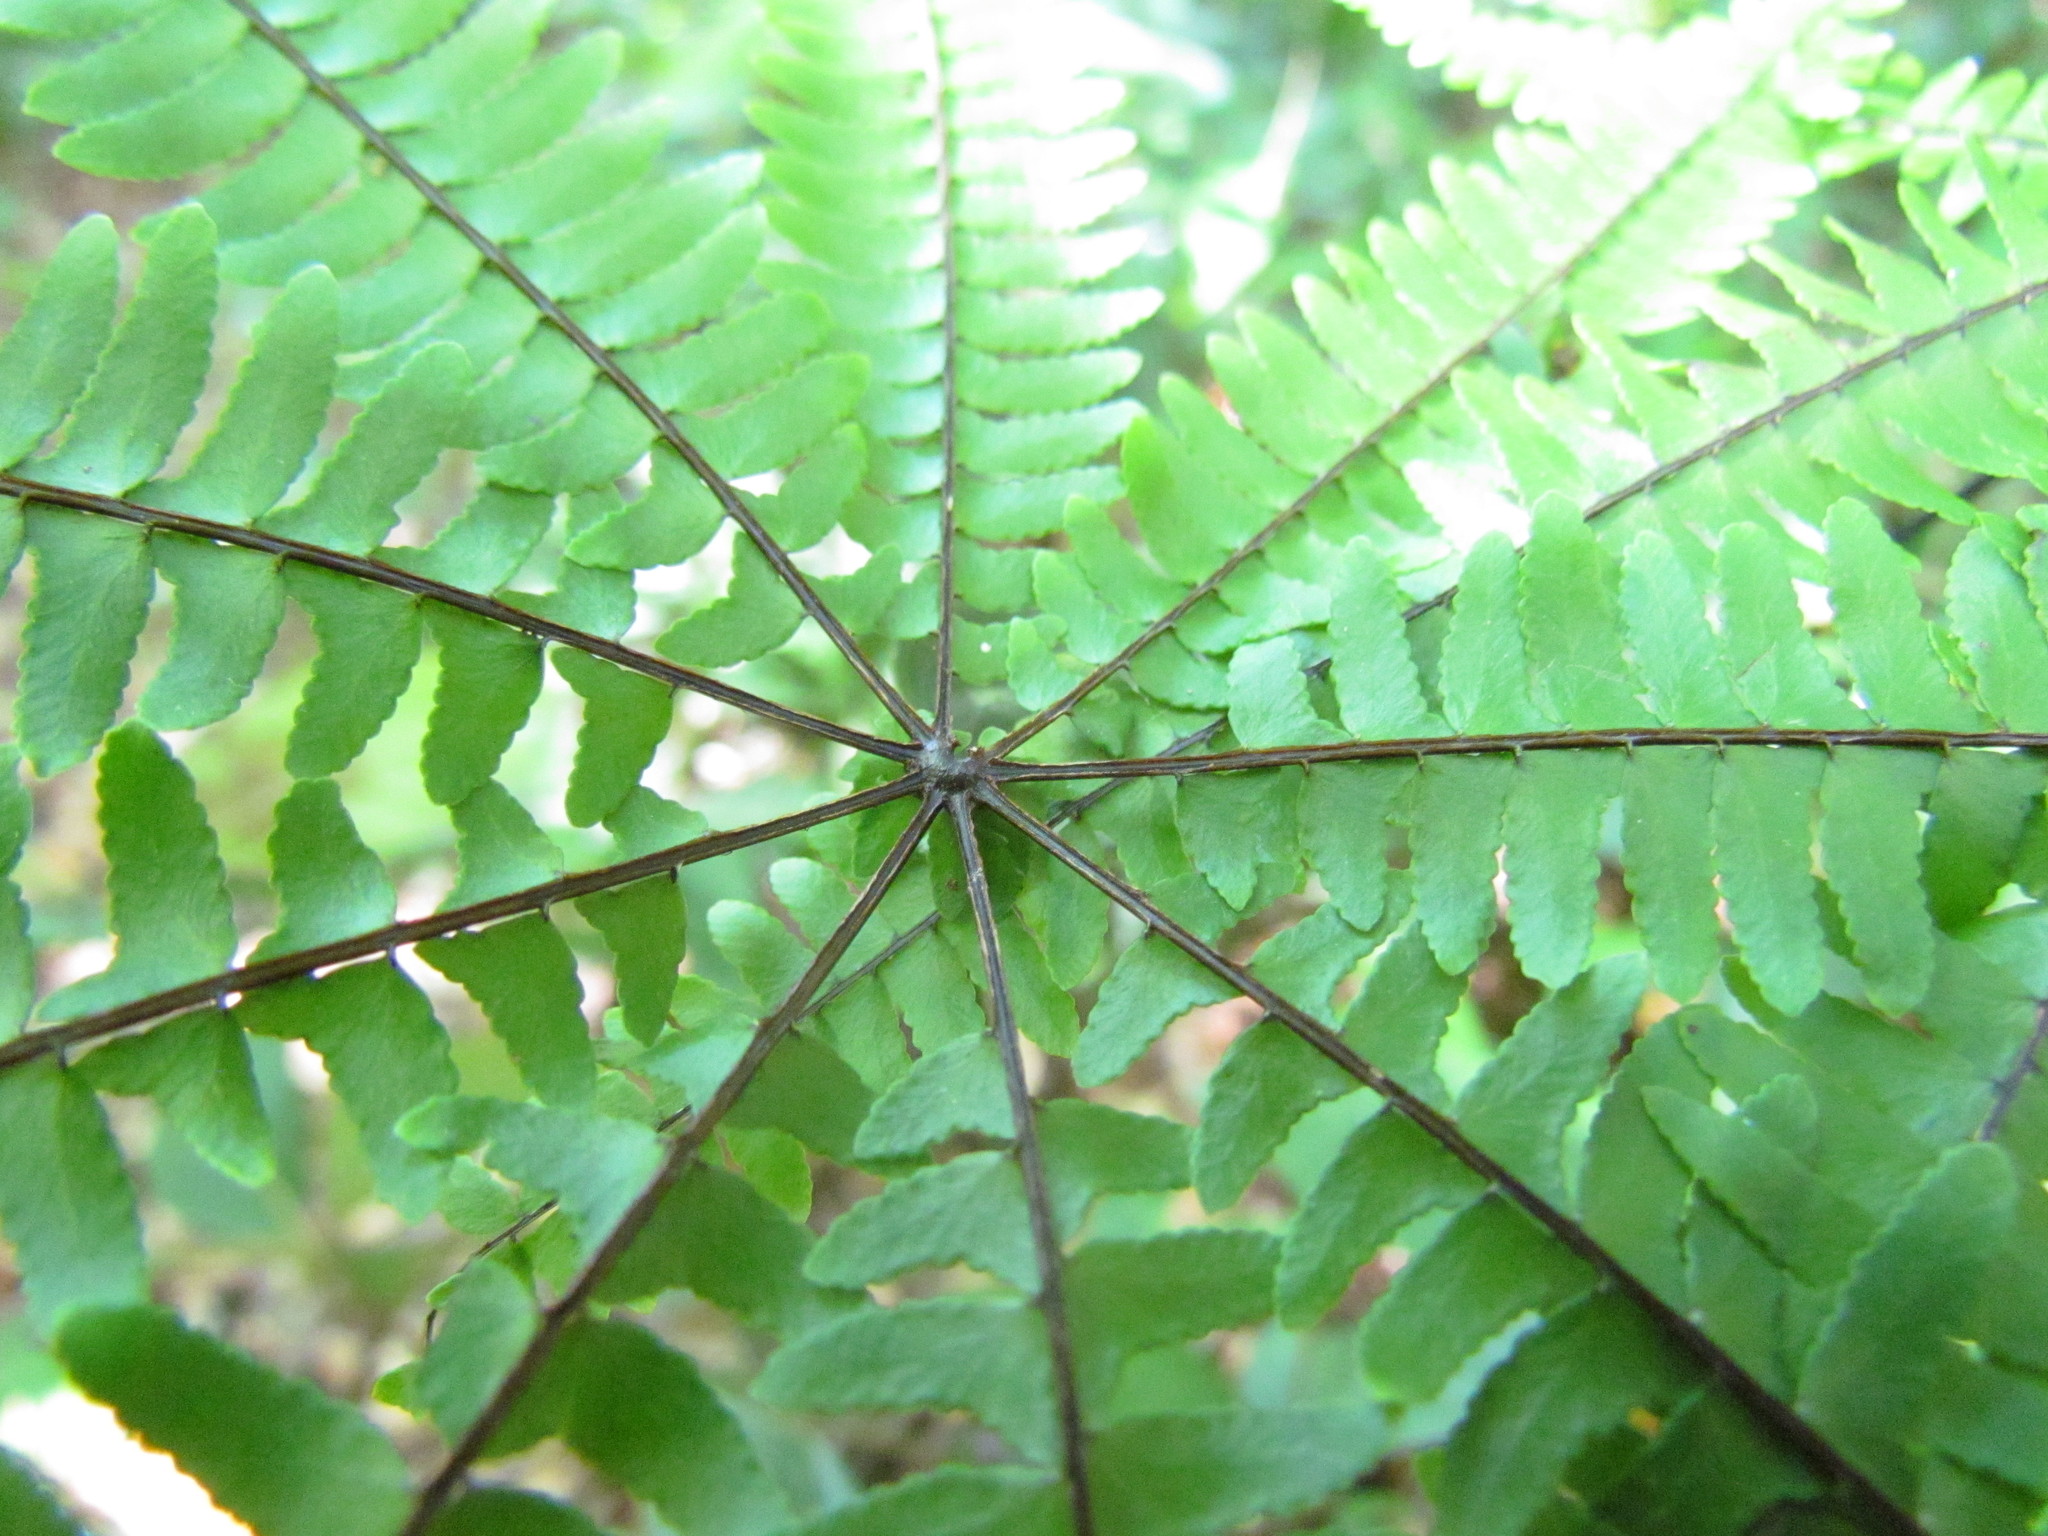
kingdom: Plantae
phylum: Tracheophyta
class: Polypodiopsida
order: Polypodiales
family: Pteridaceae
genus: Adiantopsis
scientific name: Adiantopsis radiata
